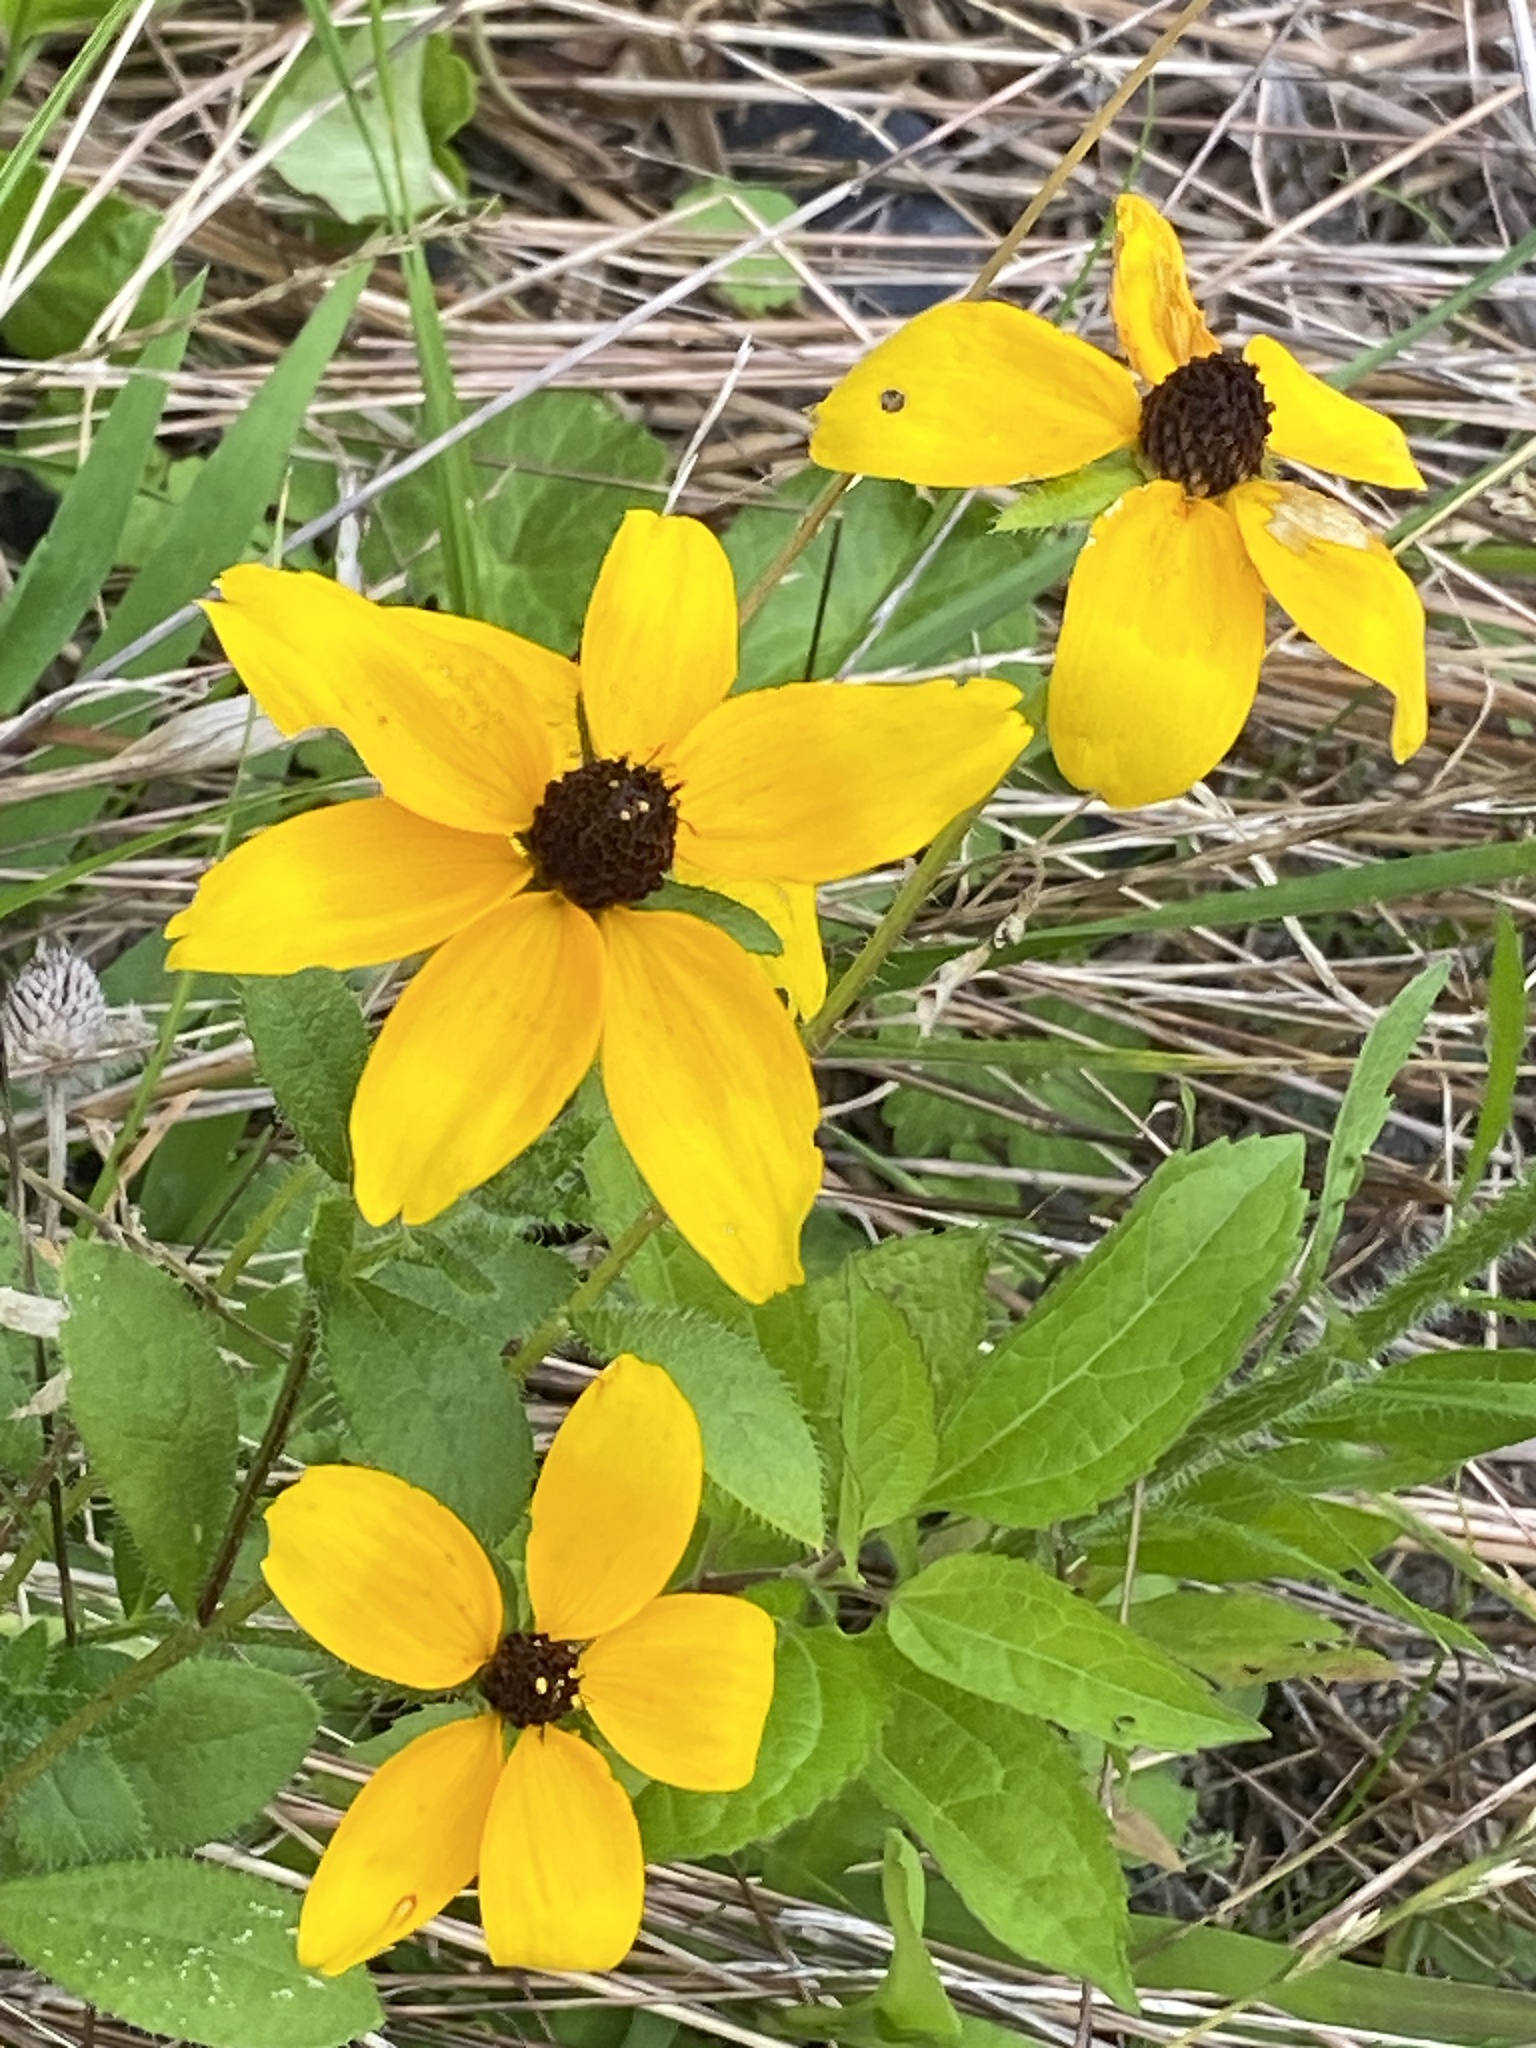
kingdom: Plantae
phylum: Tracheophyta
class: Magnoliopsida
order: Asterales
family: Asteraceae
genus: Rudbeckia
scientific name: Rudbeckia triloba
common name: Thin-leaved coneflower
